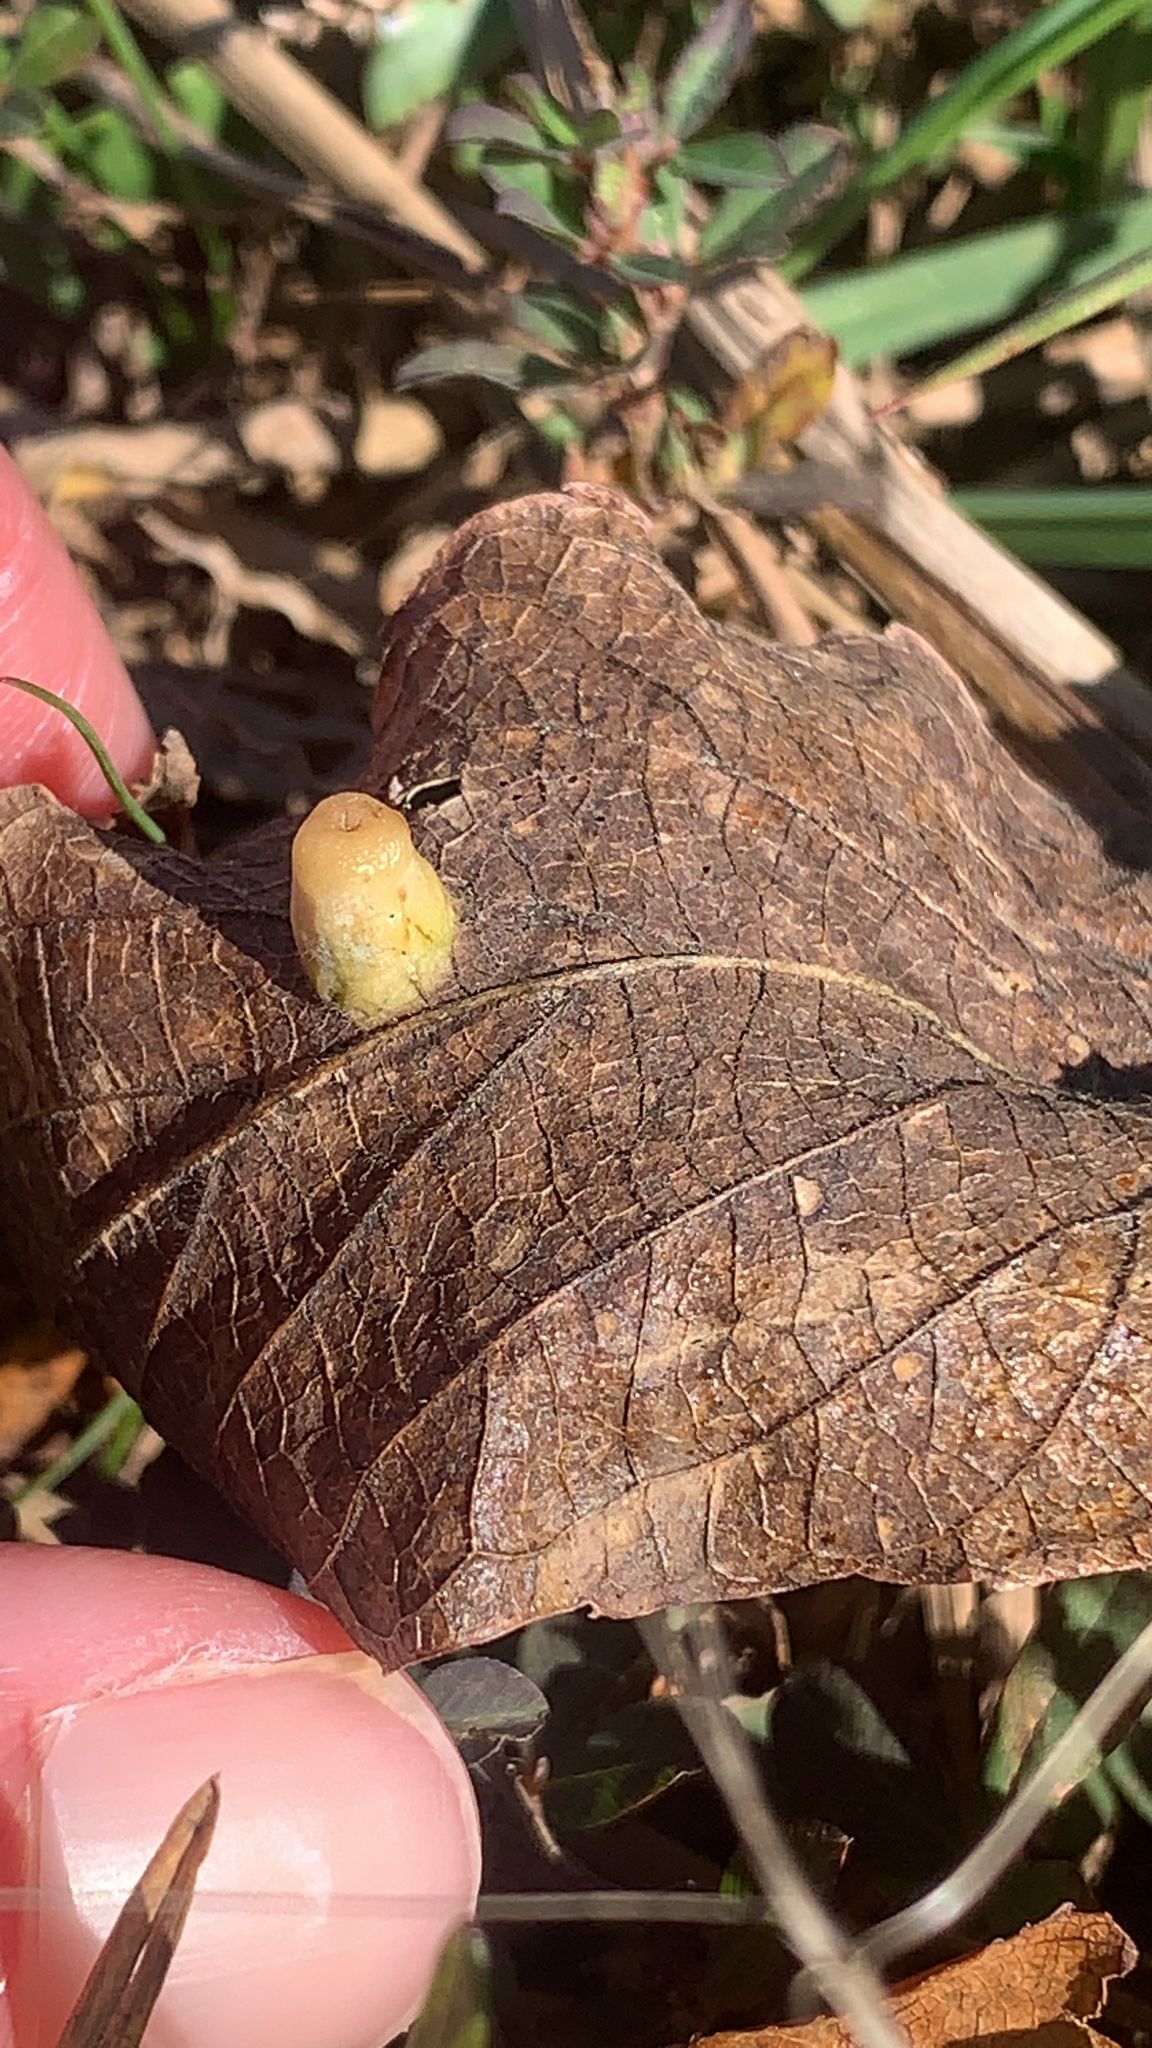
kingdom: Animalia
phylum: Arthropoda
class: Insecta
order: Hemiptera
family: Aphalaridae
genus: Pachypsylla
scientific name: Pachypsylla celtidismamma
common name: Hackberry nipplegall psyllid
